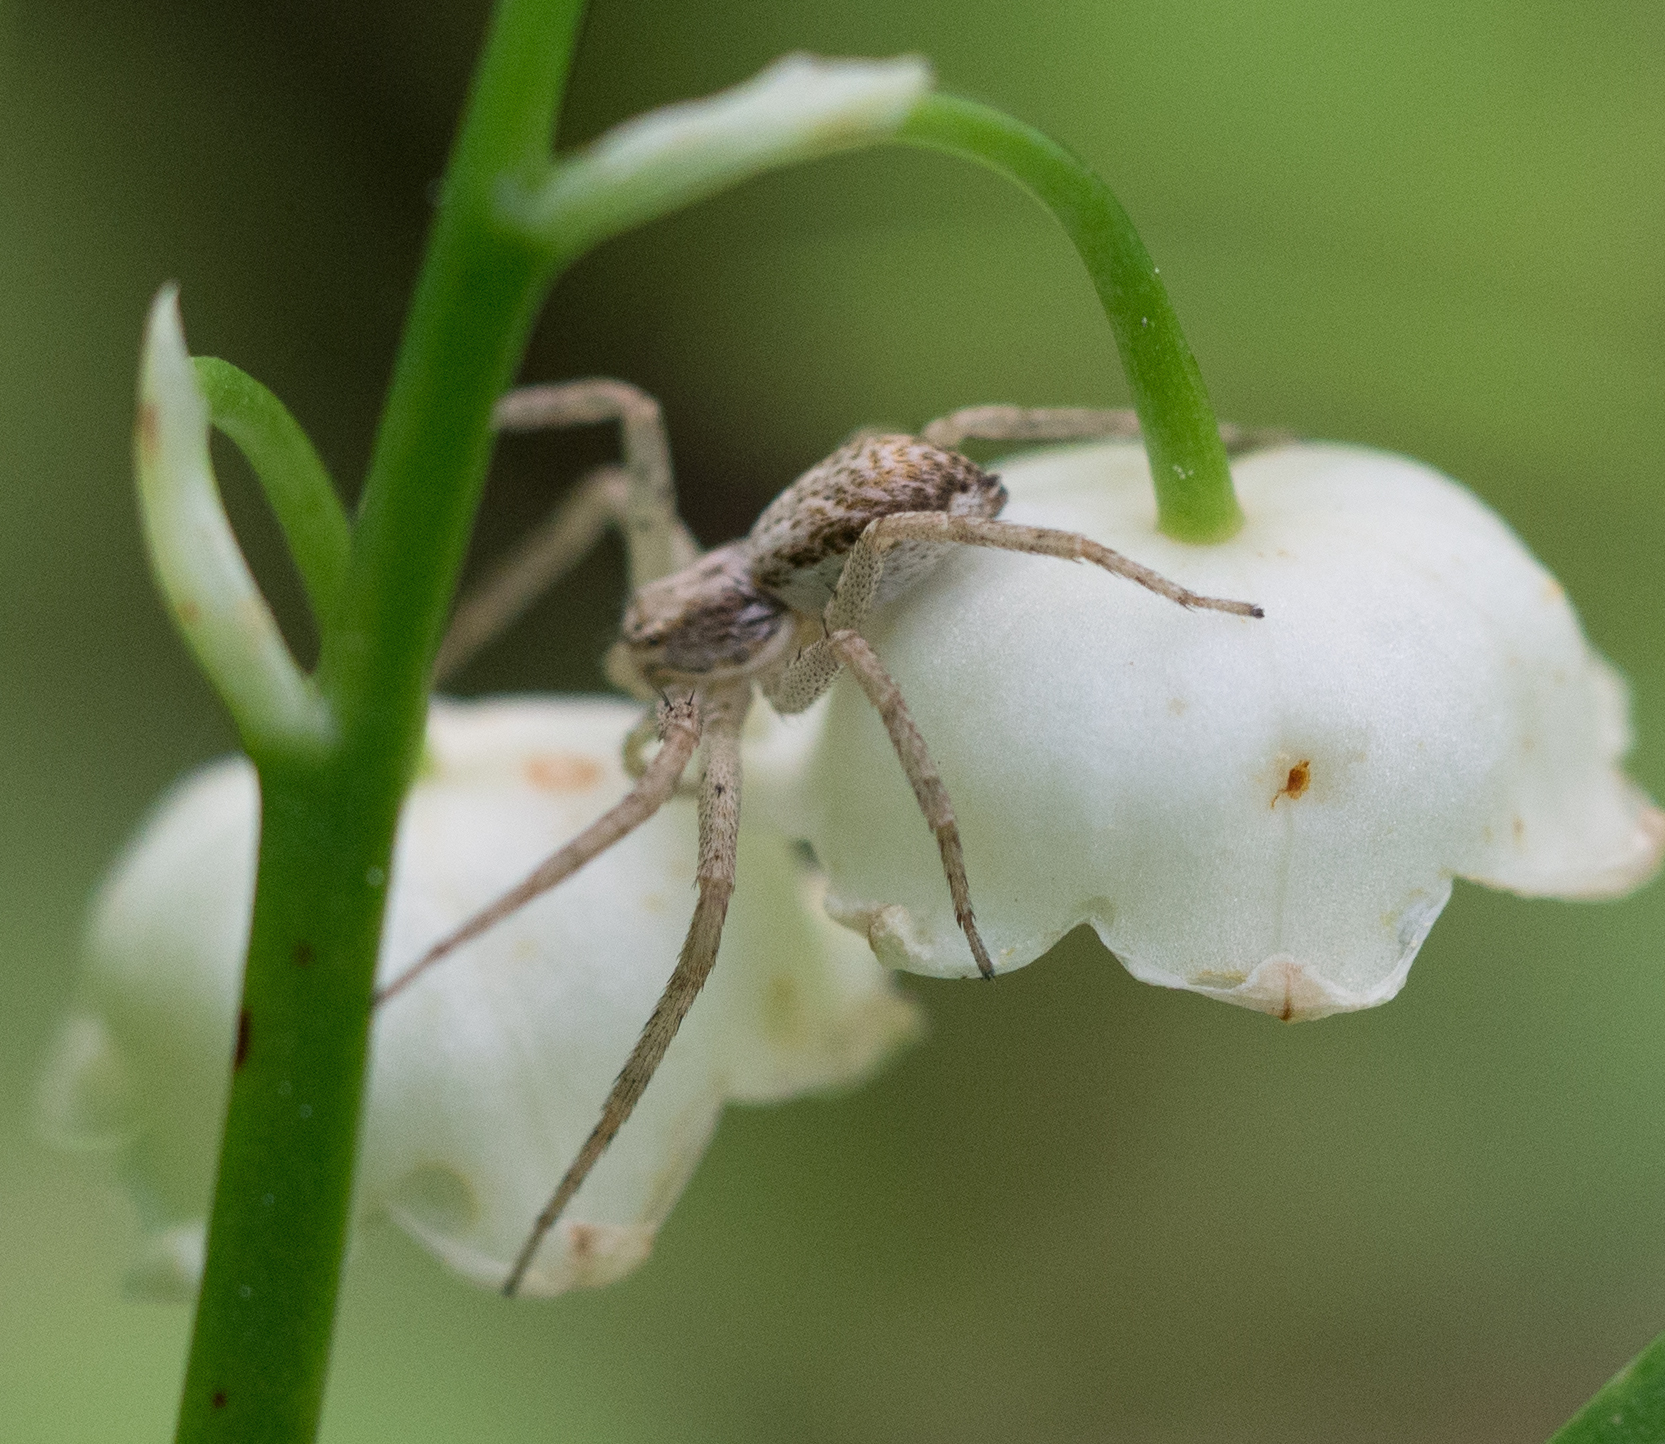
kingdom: Animalia
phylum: Arthropoda
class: Arachnida
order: Araneae
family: Philodromidae
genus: Philodromus
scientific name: Philodromus dispar
